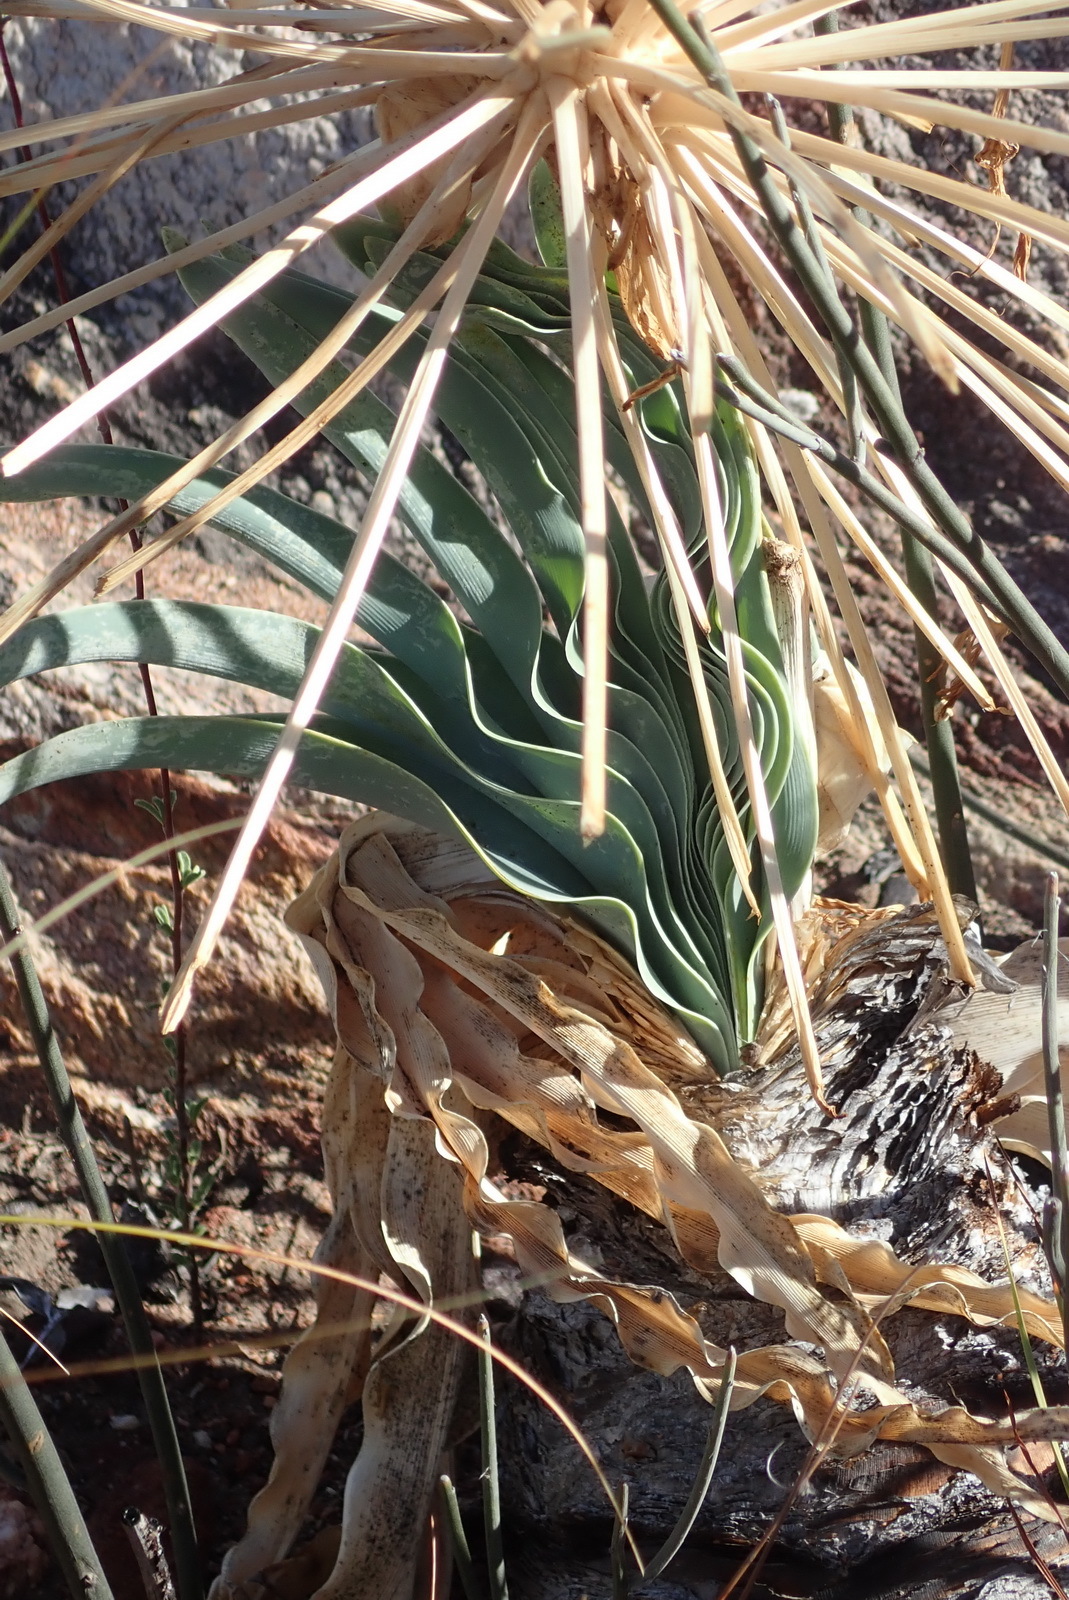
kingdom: Plantae
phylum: Tracheophyta
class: Liliopsida
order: Asparagales
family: Amaryllidaceae
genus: Boophone
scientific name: Boophone disticha
